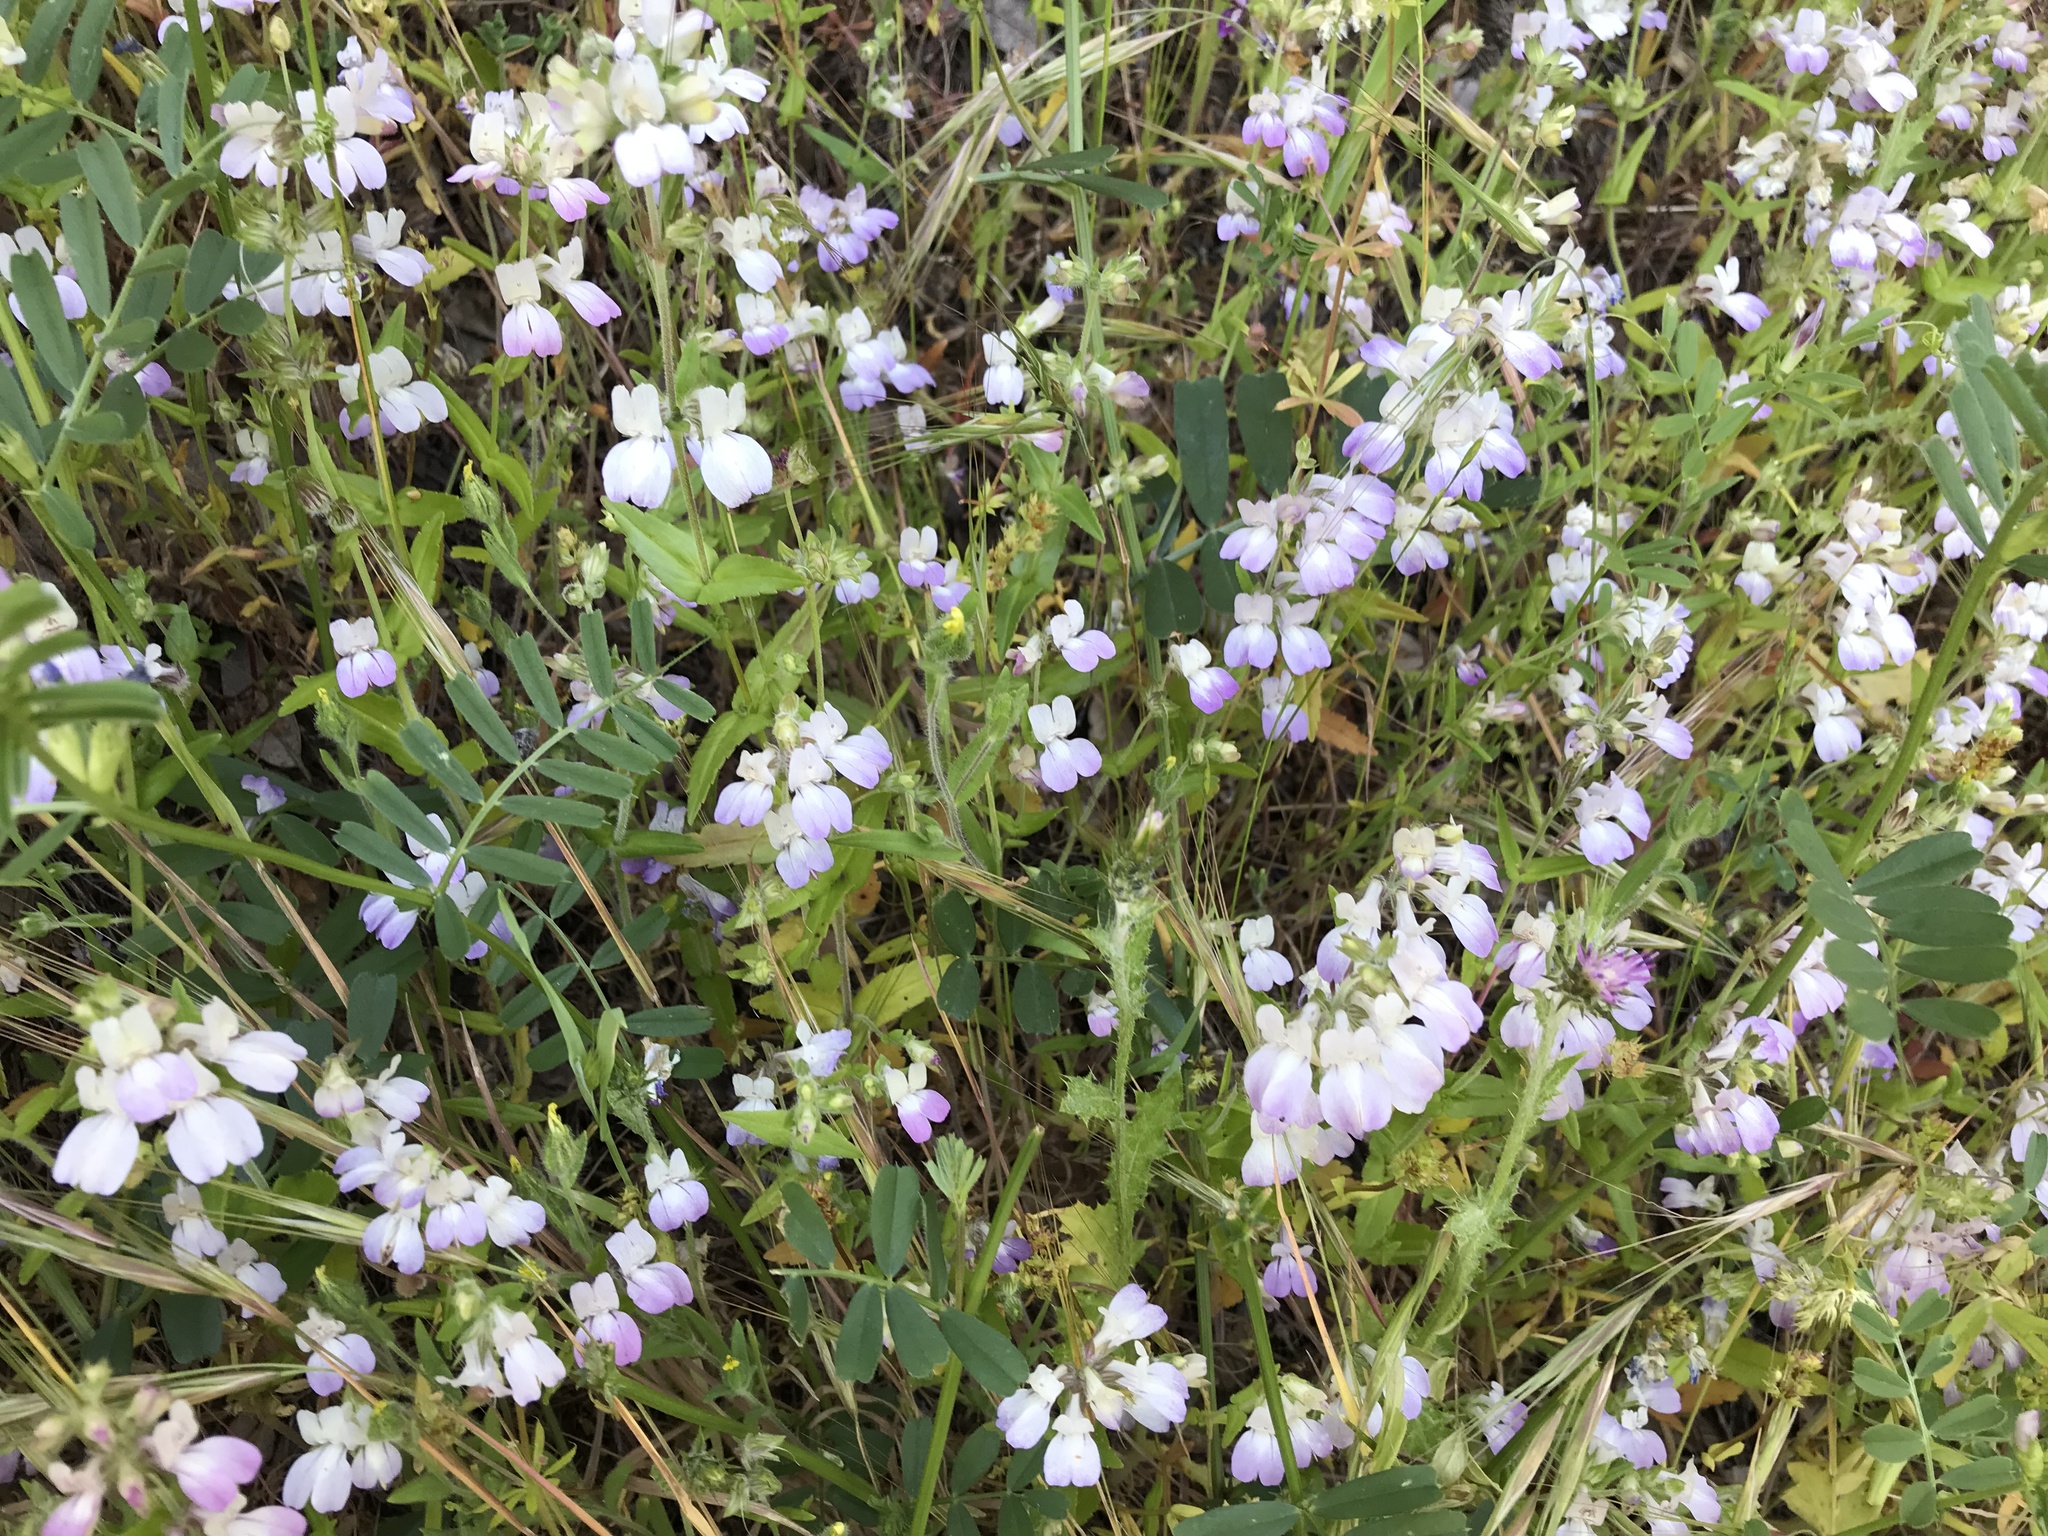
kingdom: Plantae
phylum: Tracheophyta
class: Magnoliopsida
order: Lamiales
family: Plantaginaceae
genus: Collinsia
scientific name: Collinsia heterophylla
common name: Chinese-houses
